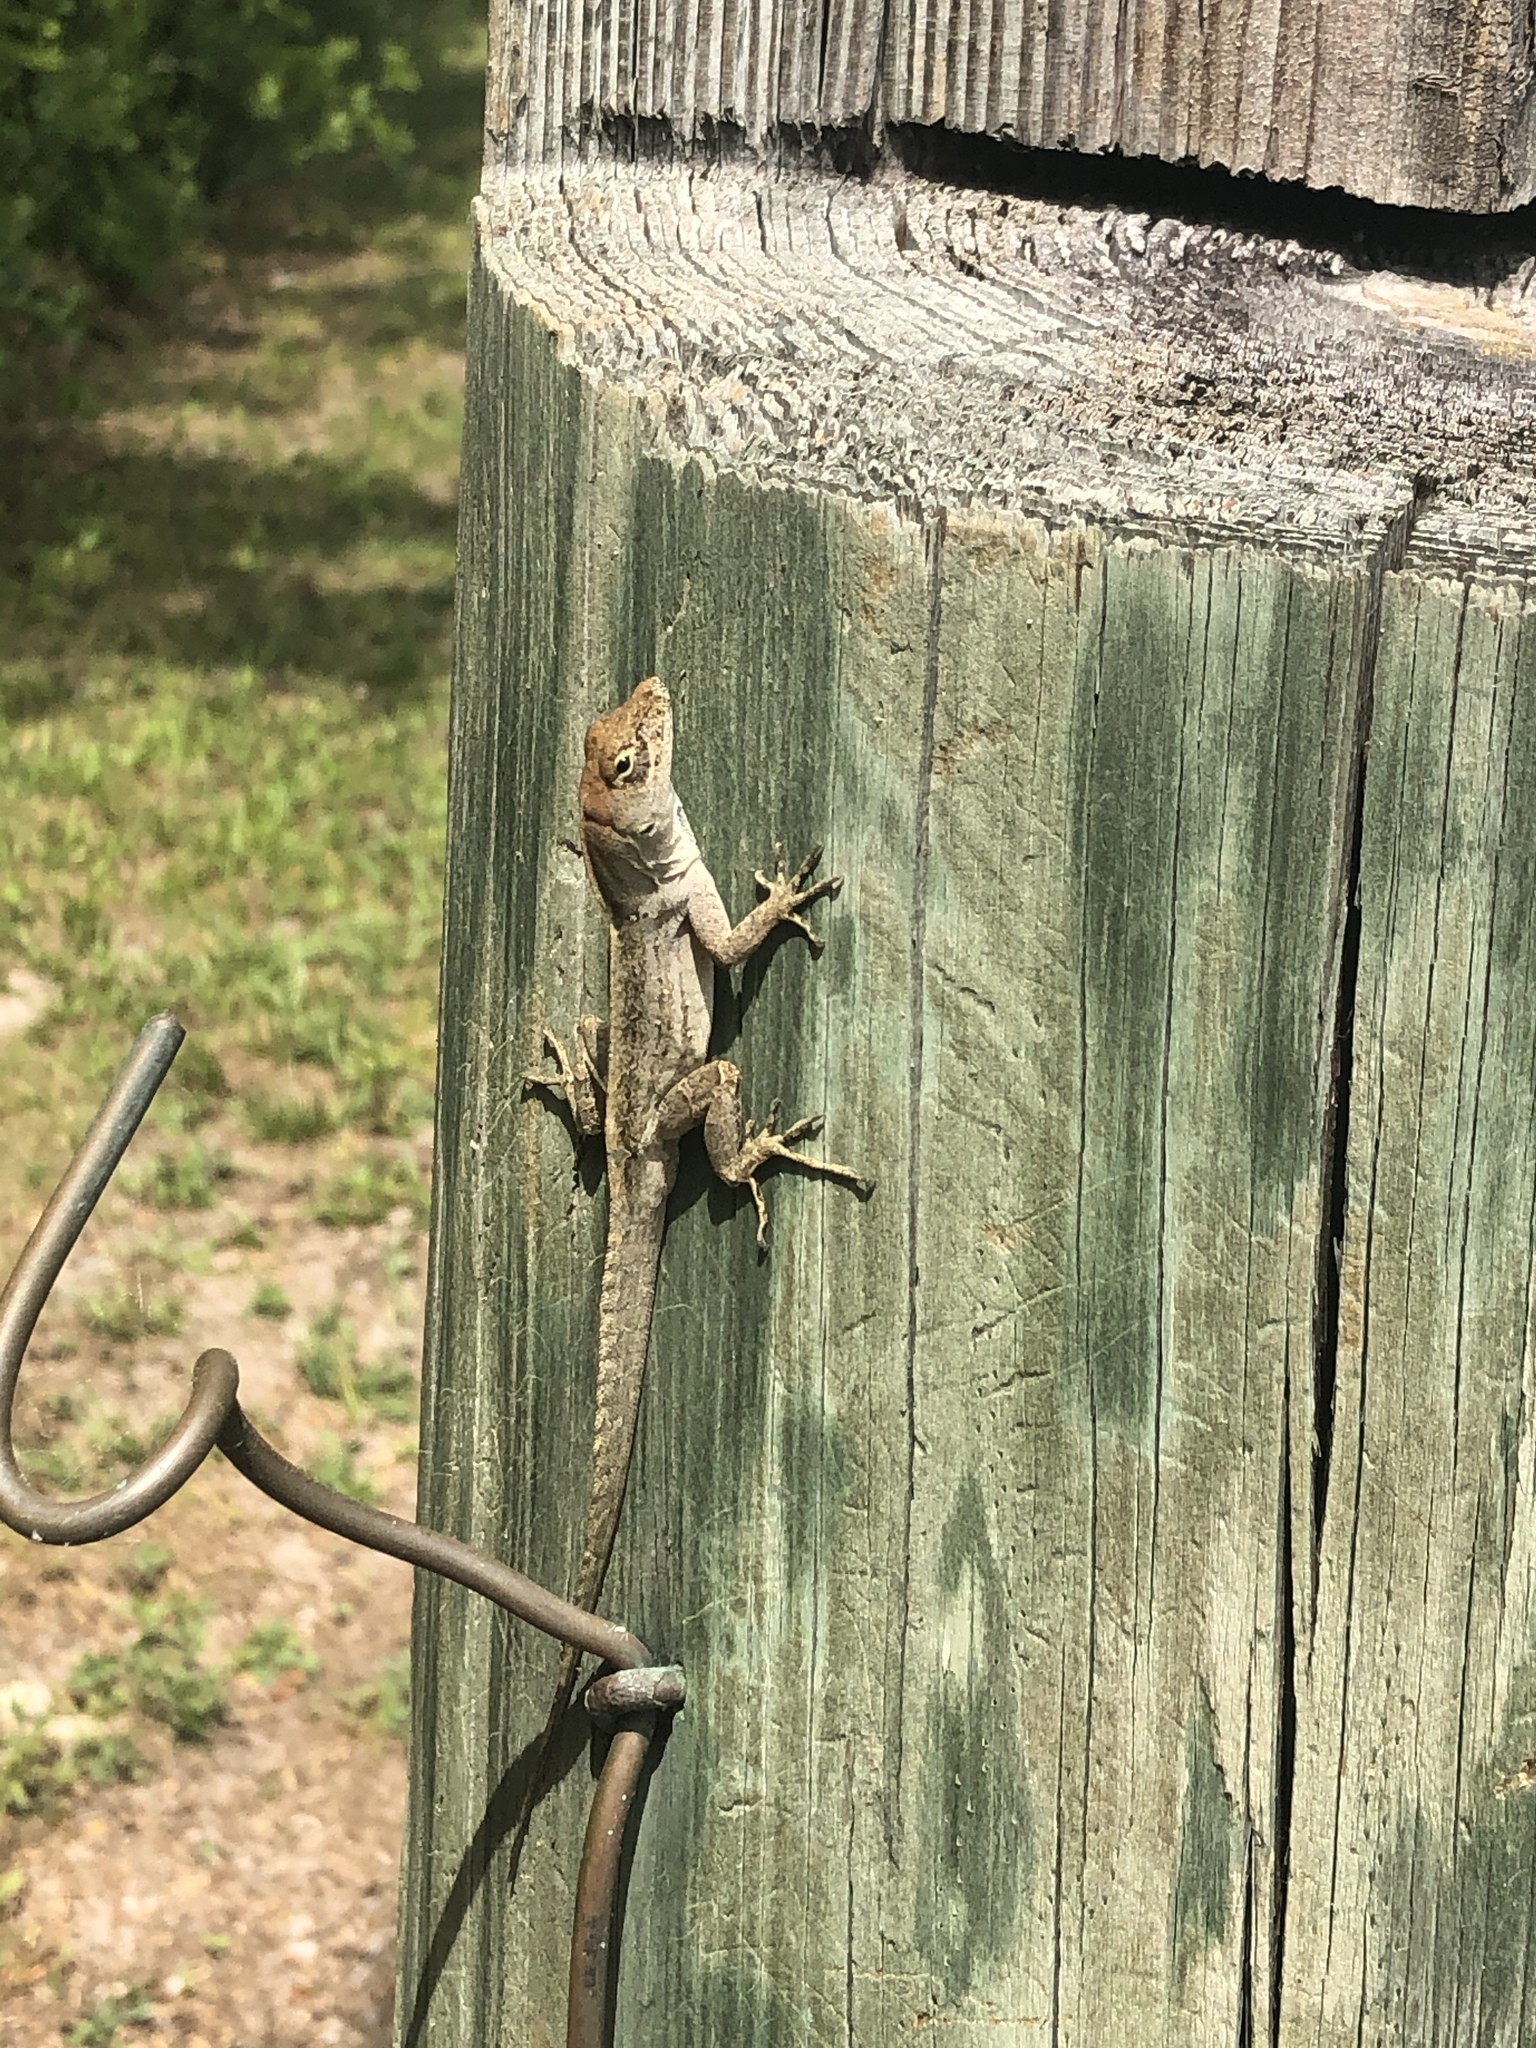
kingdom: Animalia
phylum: Chordata
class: Squamata
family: Dactyloidae
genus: Anolis
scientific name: Anolis sagrei
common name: Brown anole
